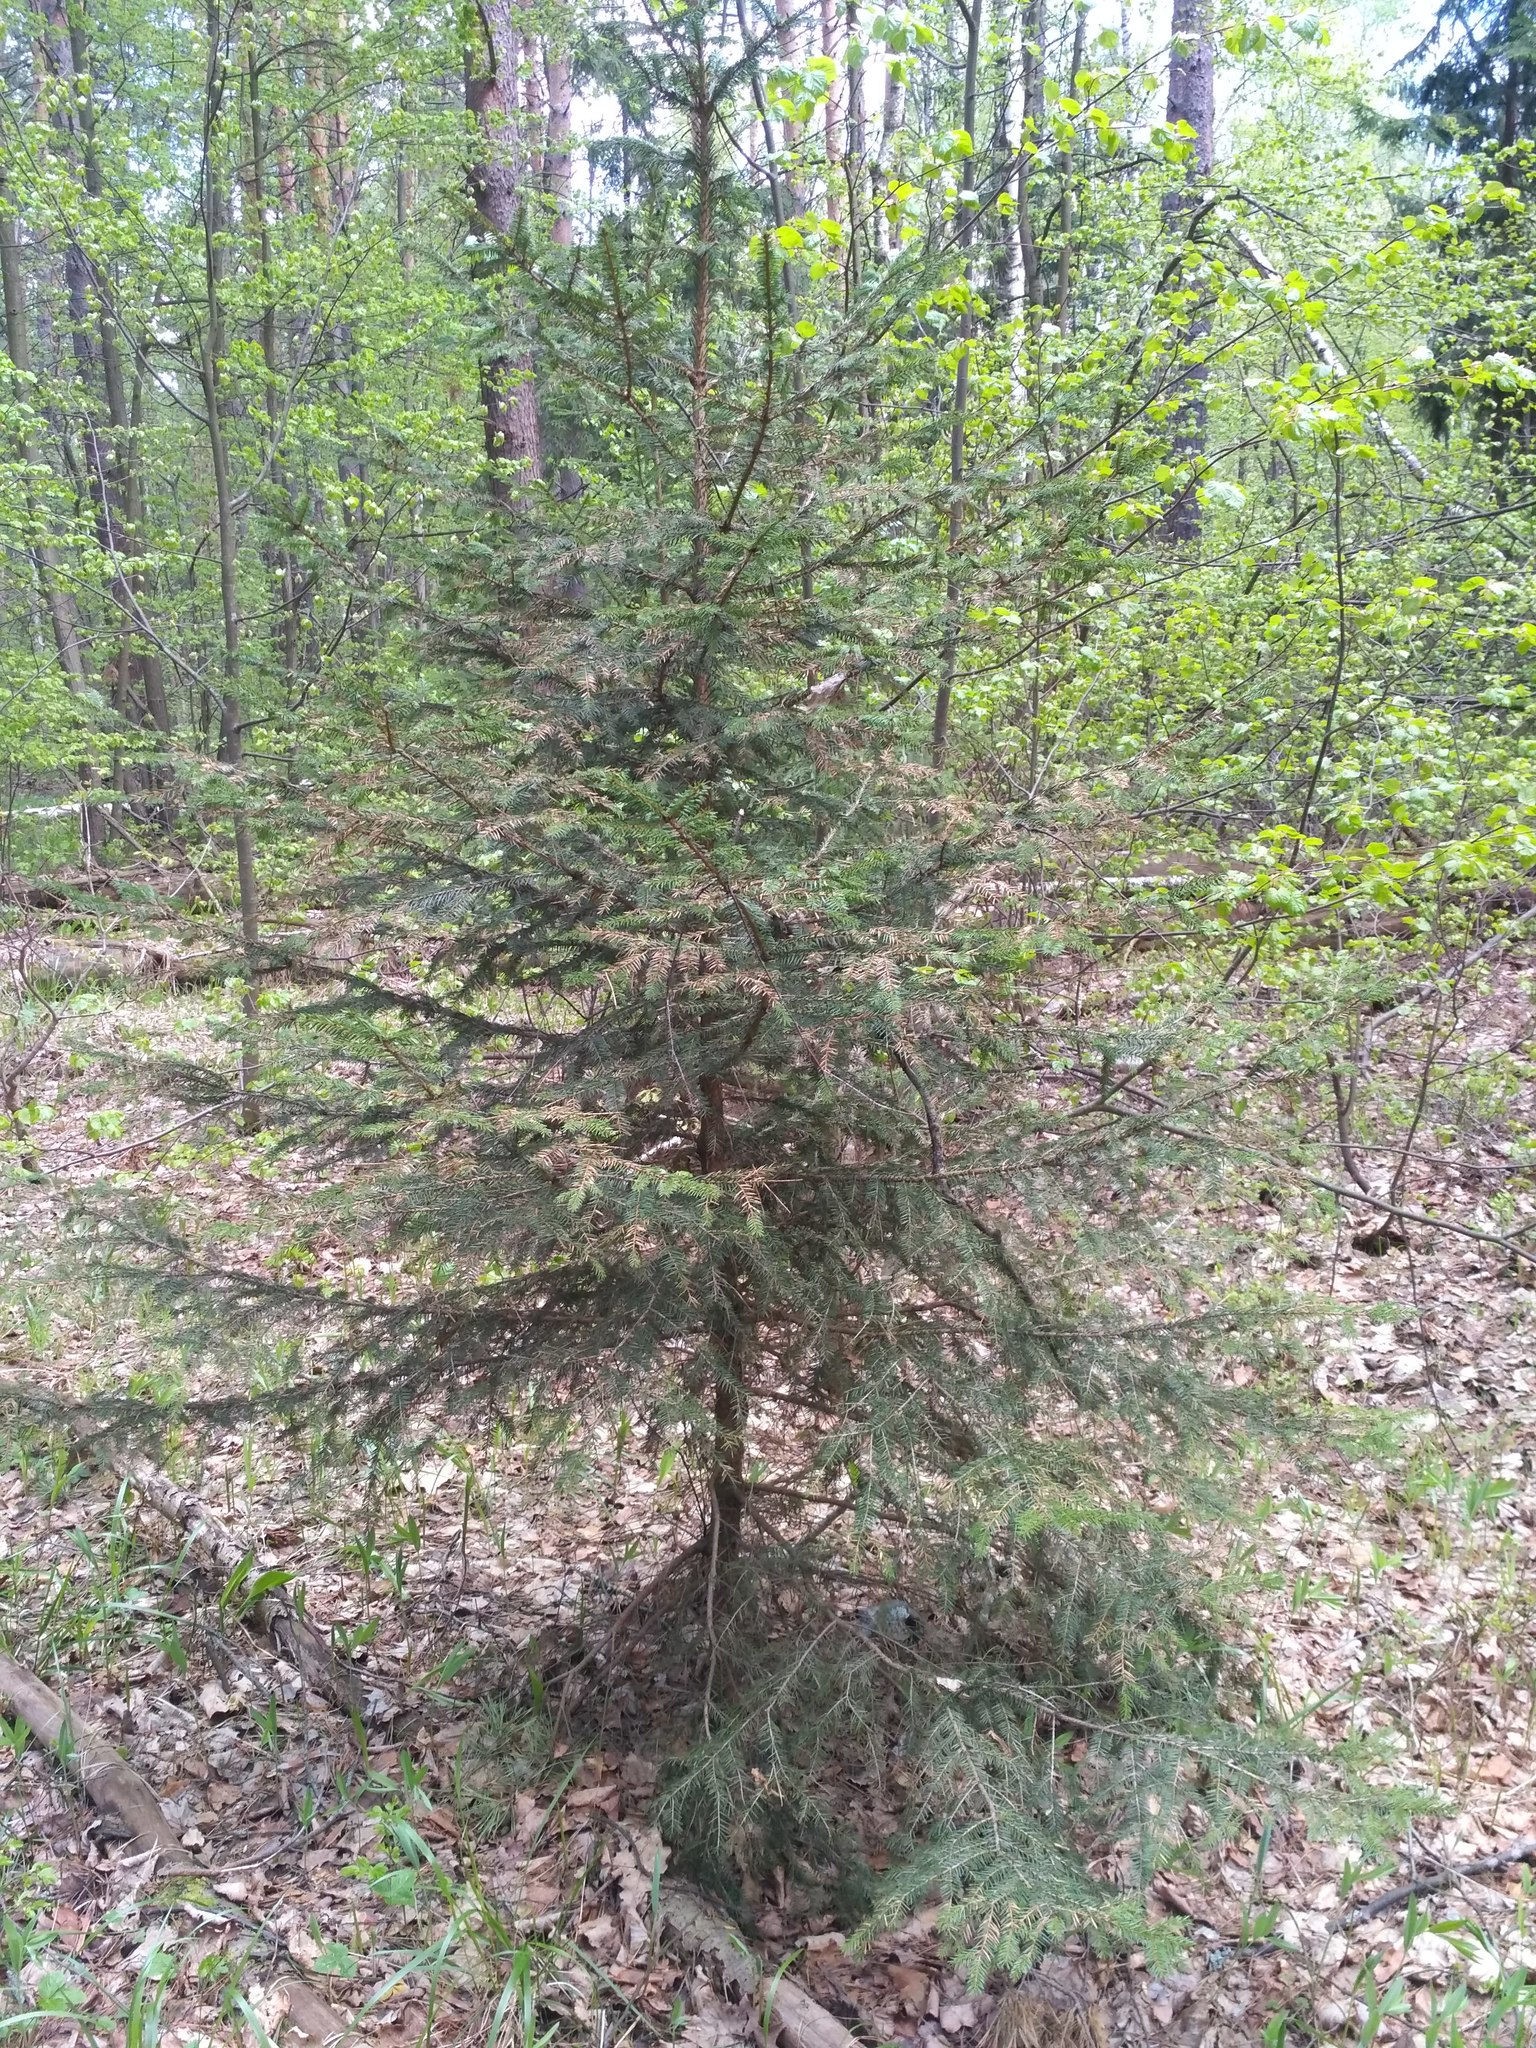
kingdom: Plantae
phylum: Tracheophyta
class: Pinopsida
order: Pinales
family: Pinaceae
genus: Picea
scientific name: Picea abies
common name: Norway spruce
